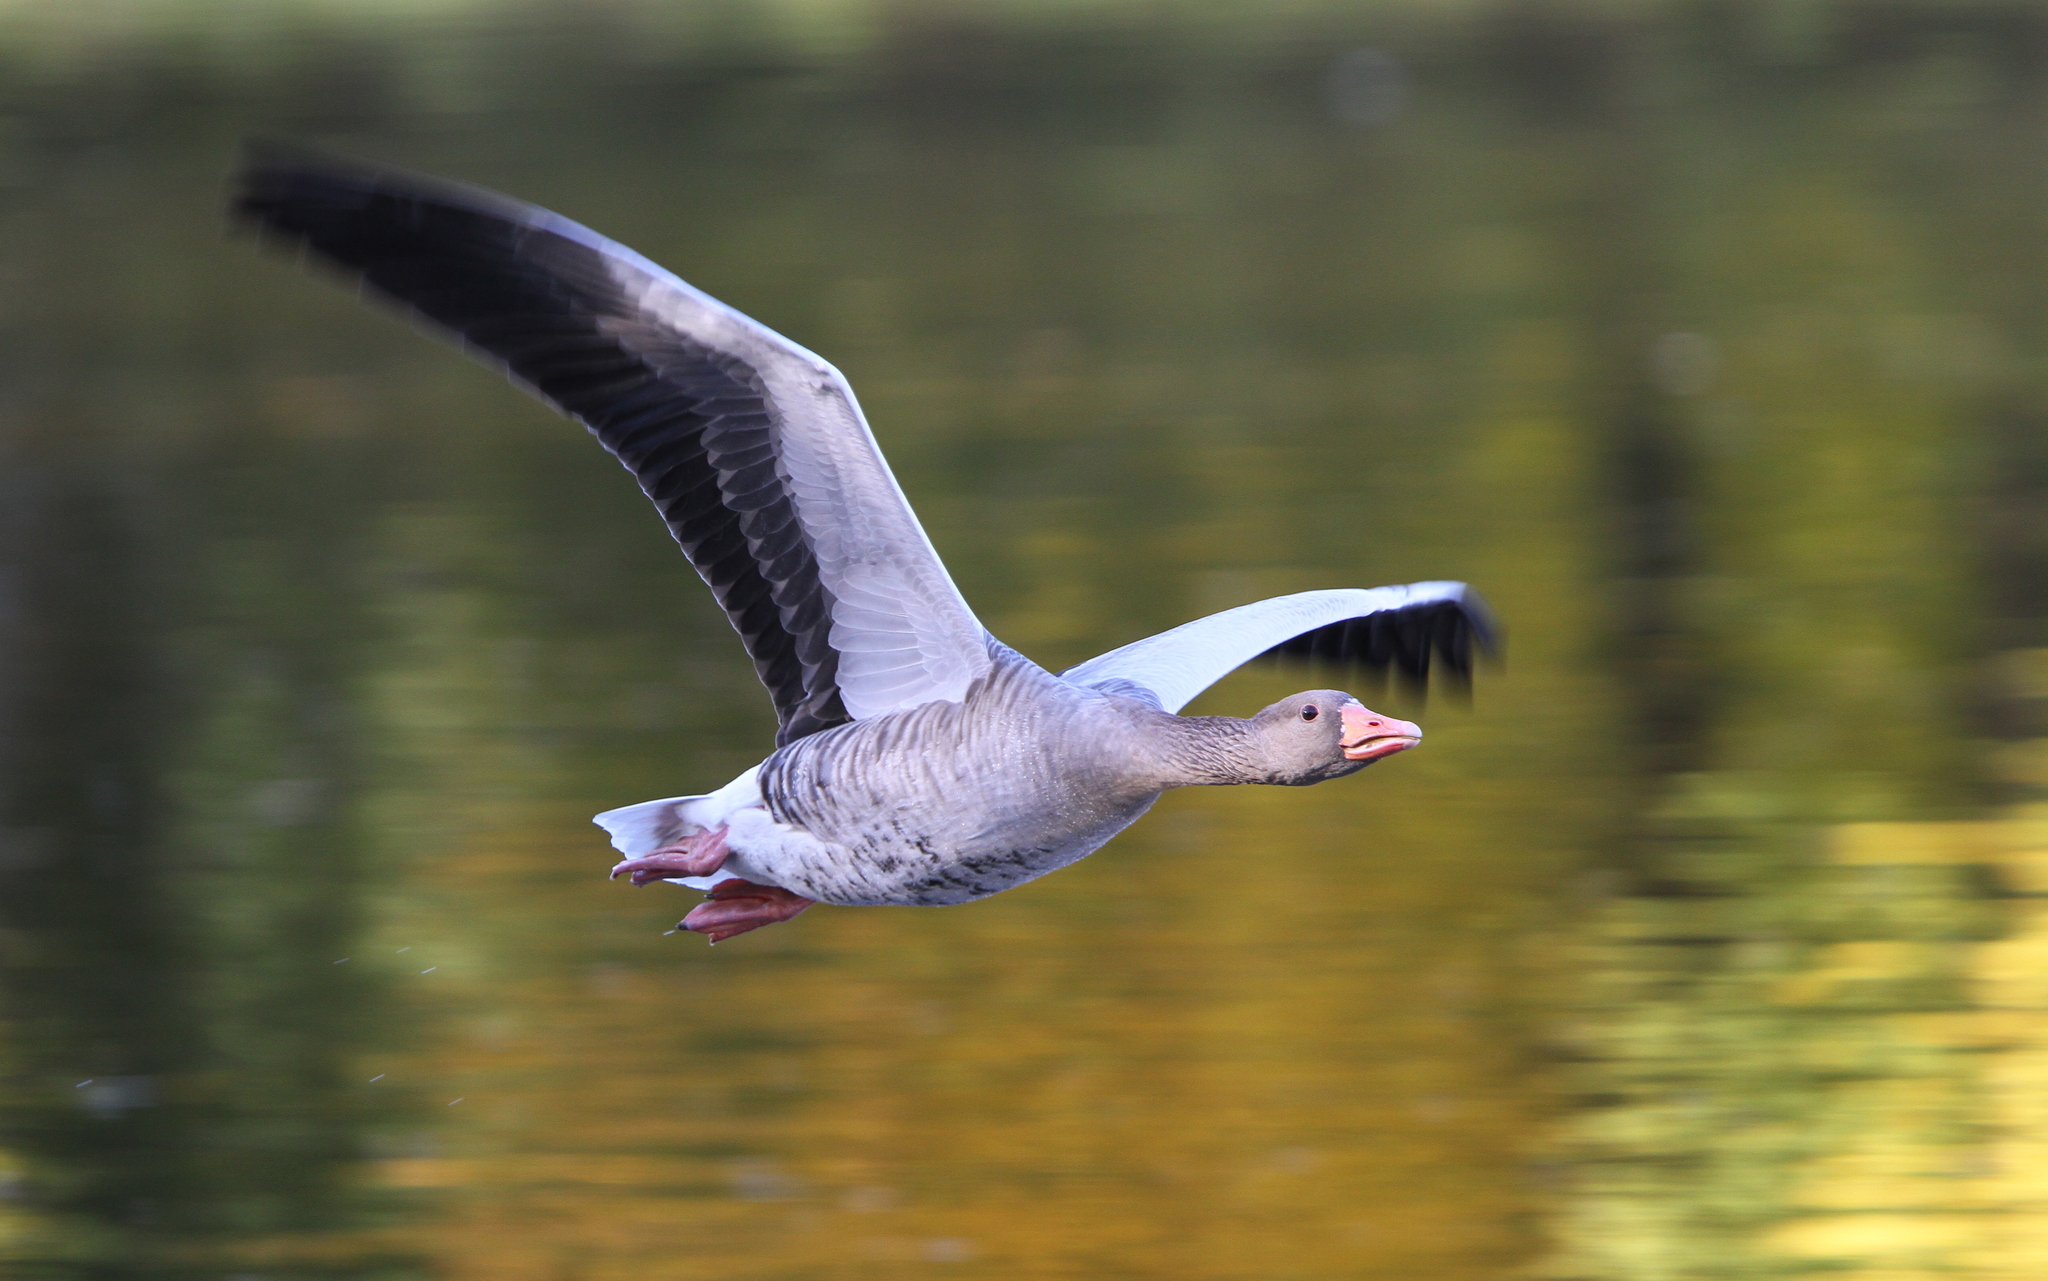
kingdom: Animalia
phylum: Chordata
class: Aves
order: Anseriformes
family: Anatidae
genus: Anser
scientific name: Anser anser
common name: Greylag goose
